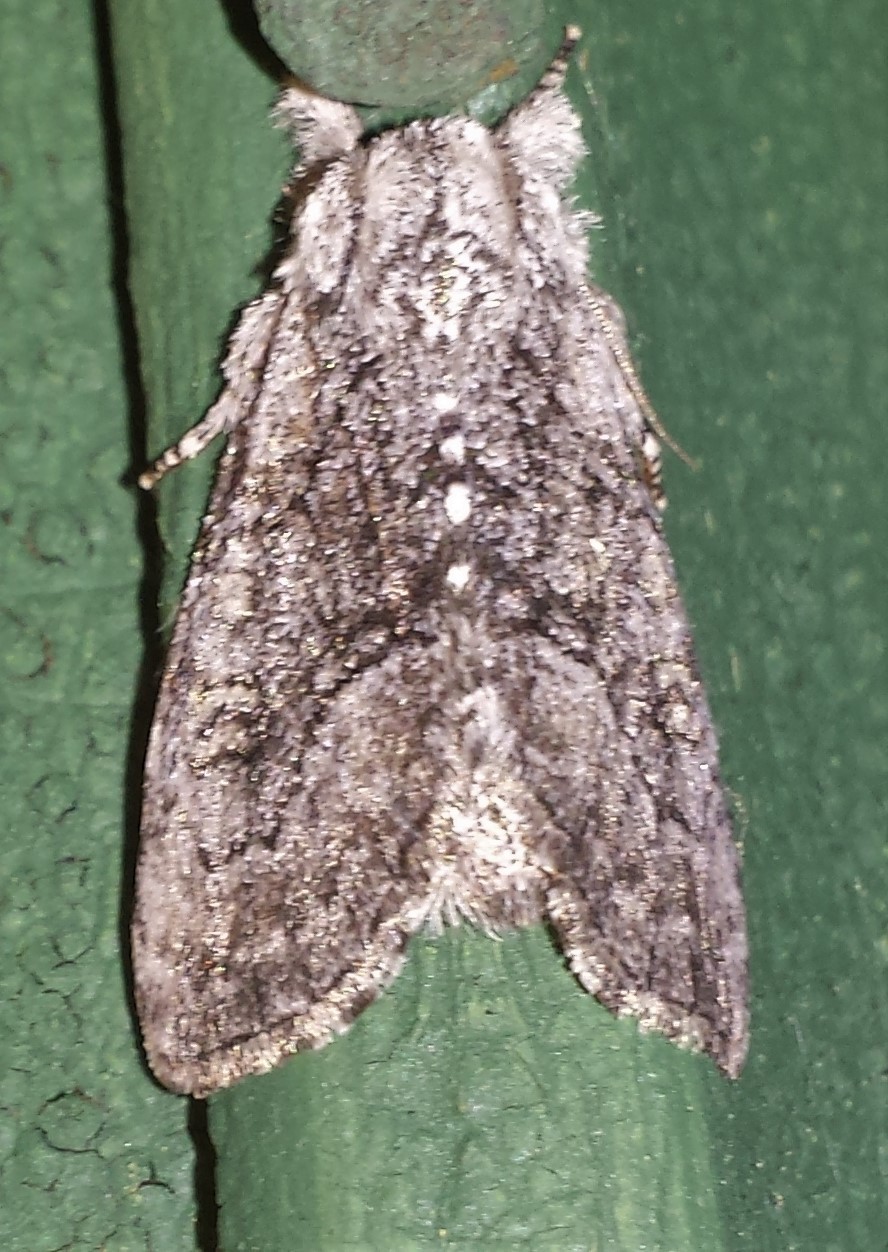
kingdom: Animalia
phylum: Arthropoda
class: Insecta
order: Lepidoptera
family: Noctuidae
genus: Raphia
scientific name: Raphia frater
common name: Brother
